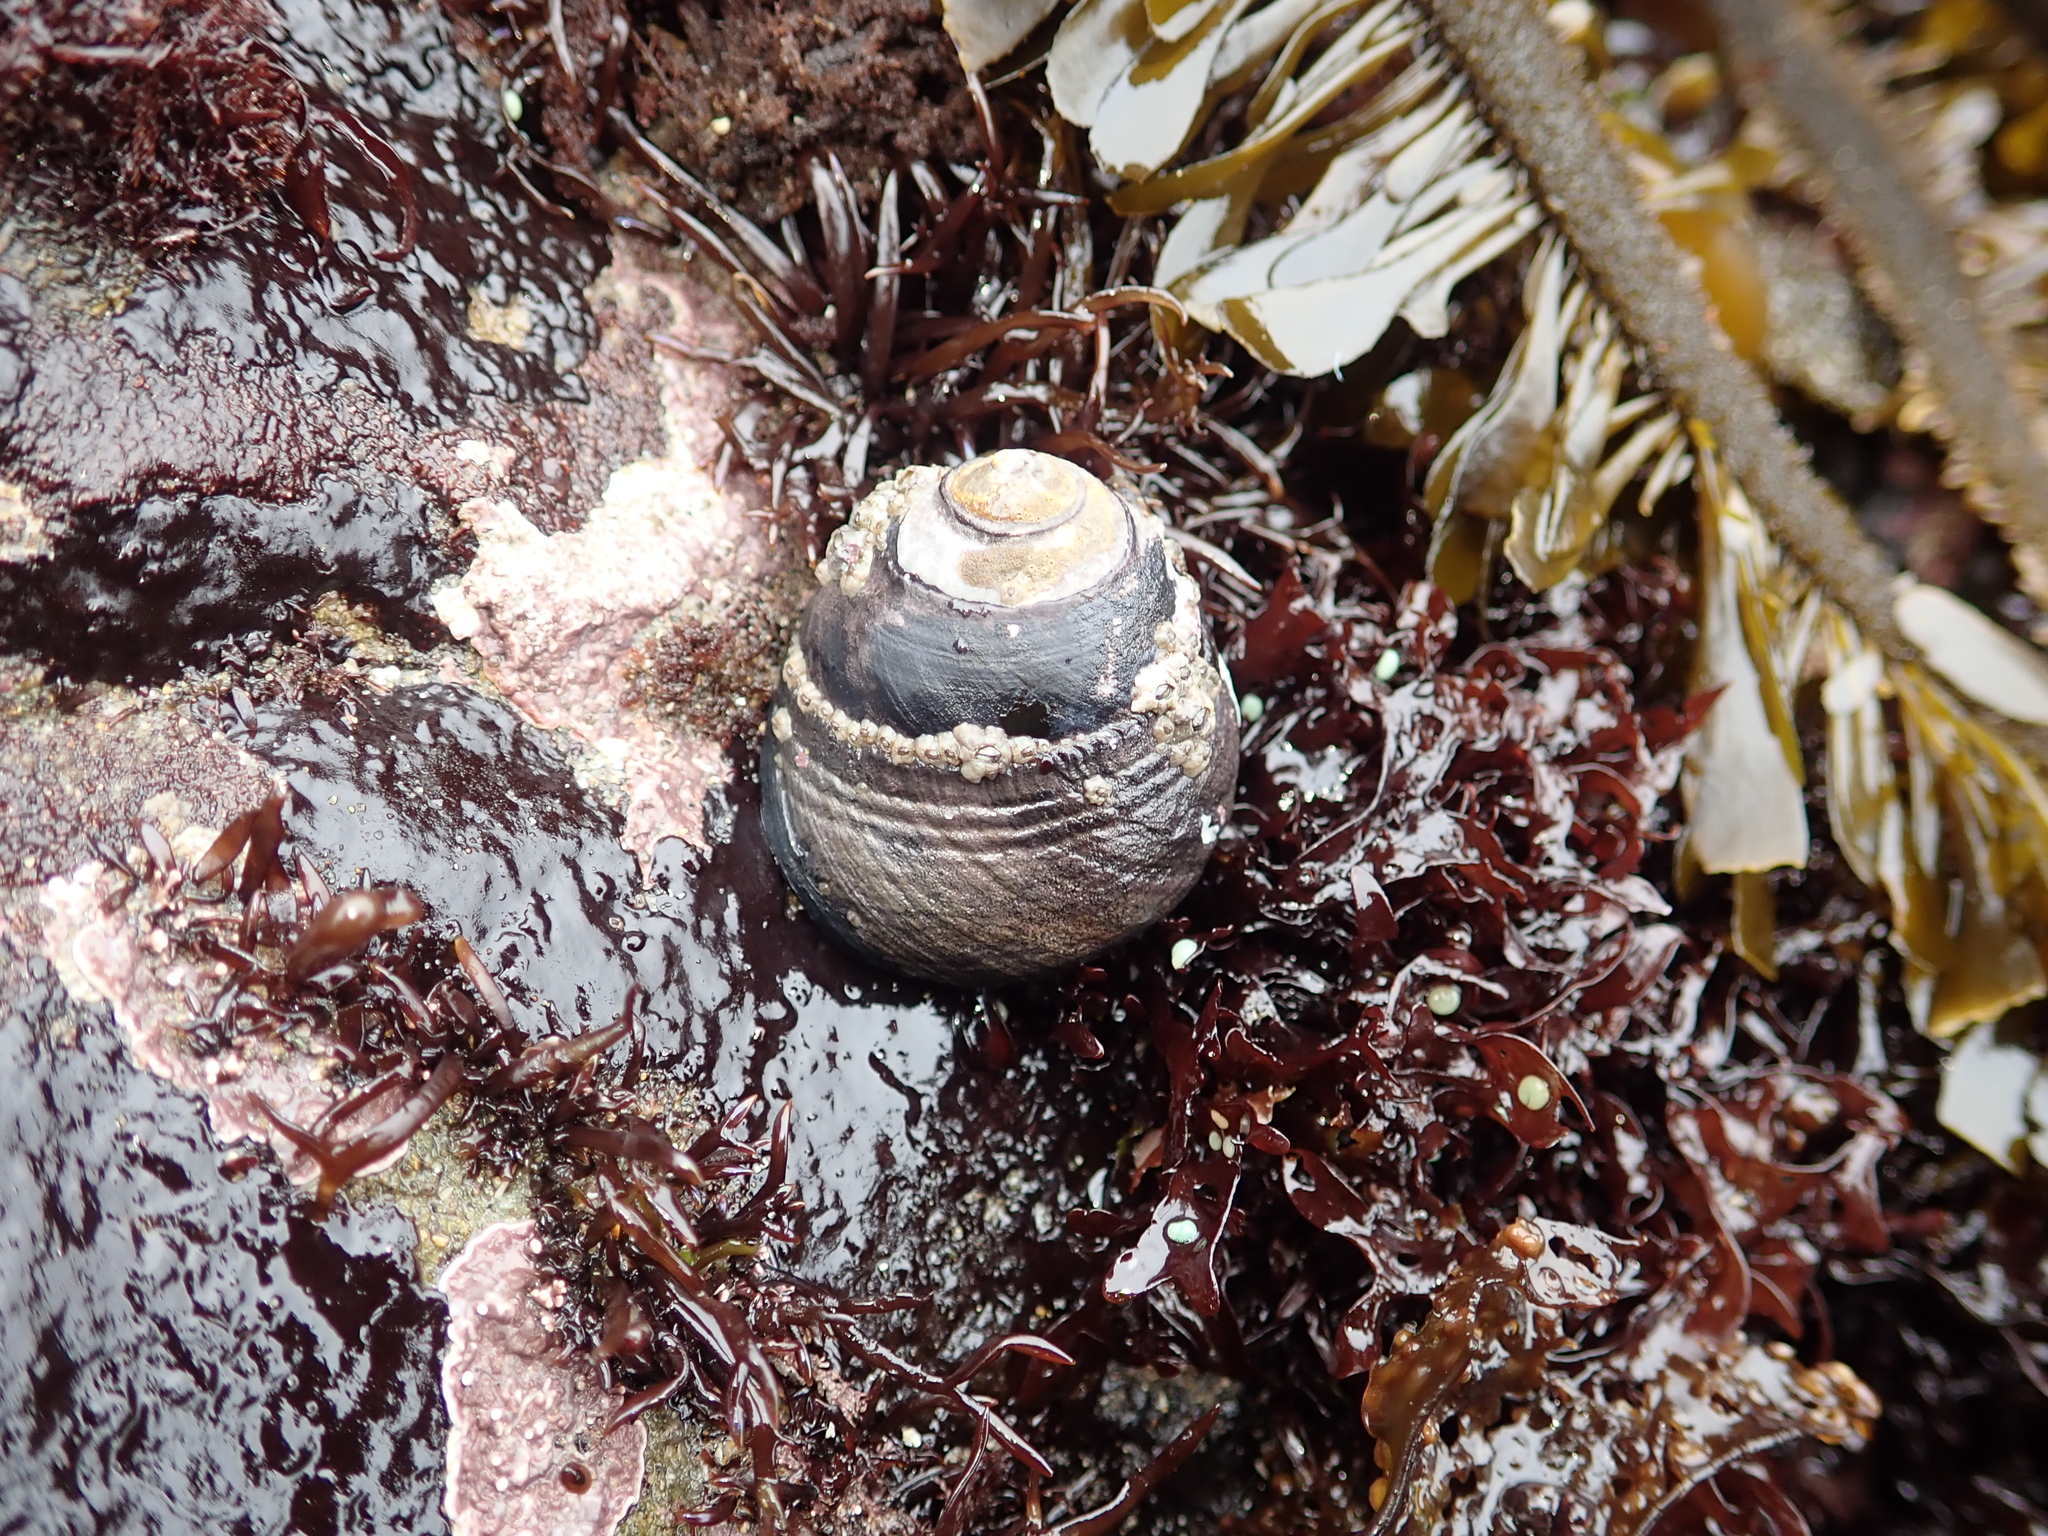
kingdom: Animalia
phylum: Mollusca
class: Gastropoda
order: Trochida
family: Tegulidae
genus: Tegula
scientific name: Tegula funebralis
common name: Black tegula
